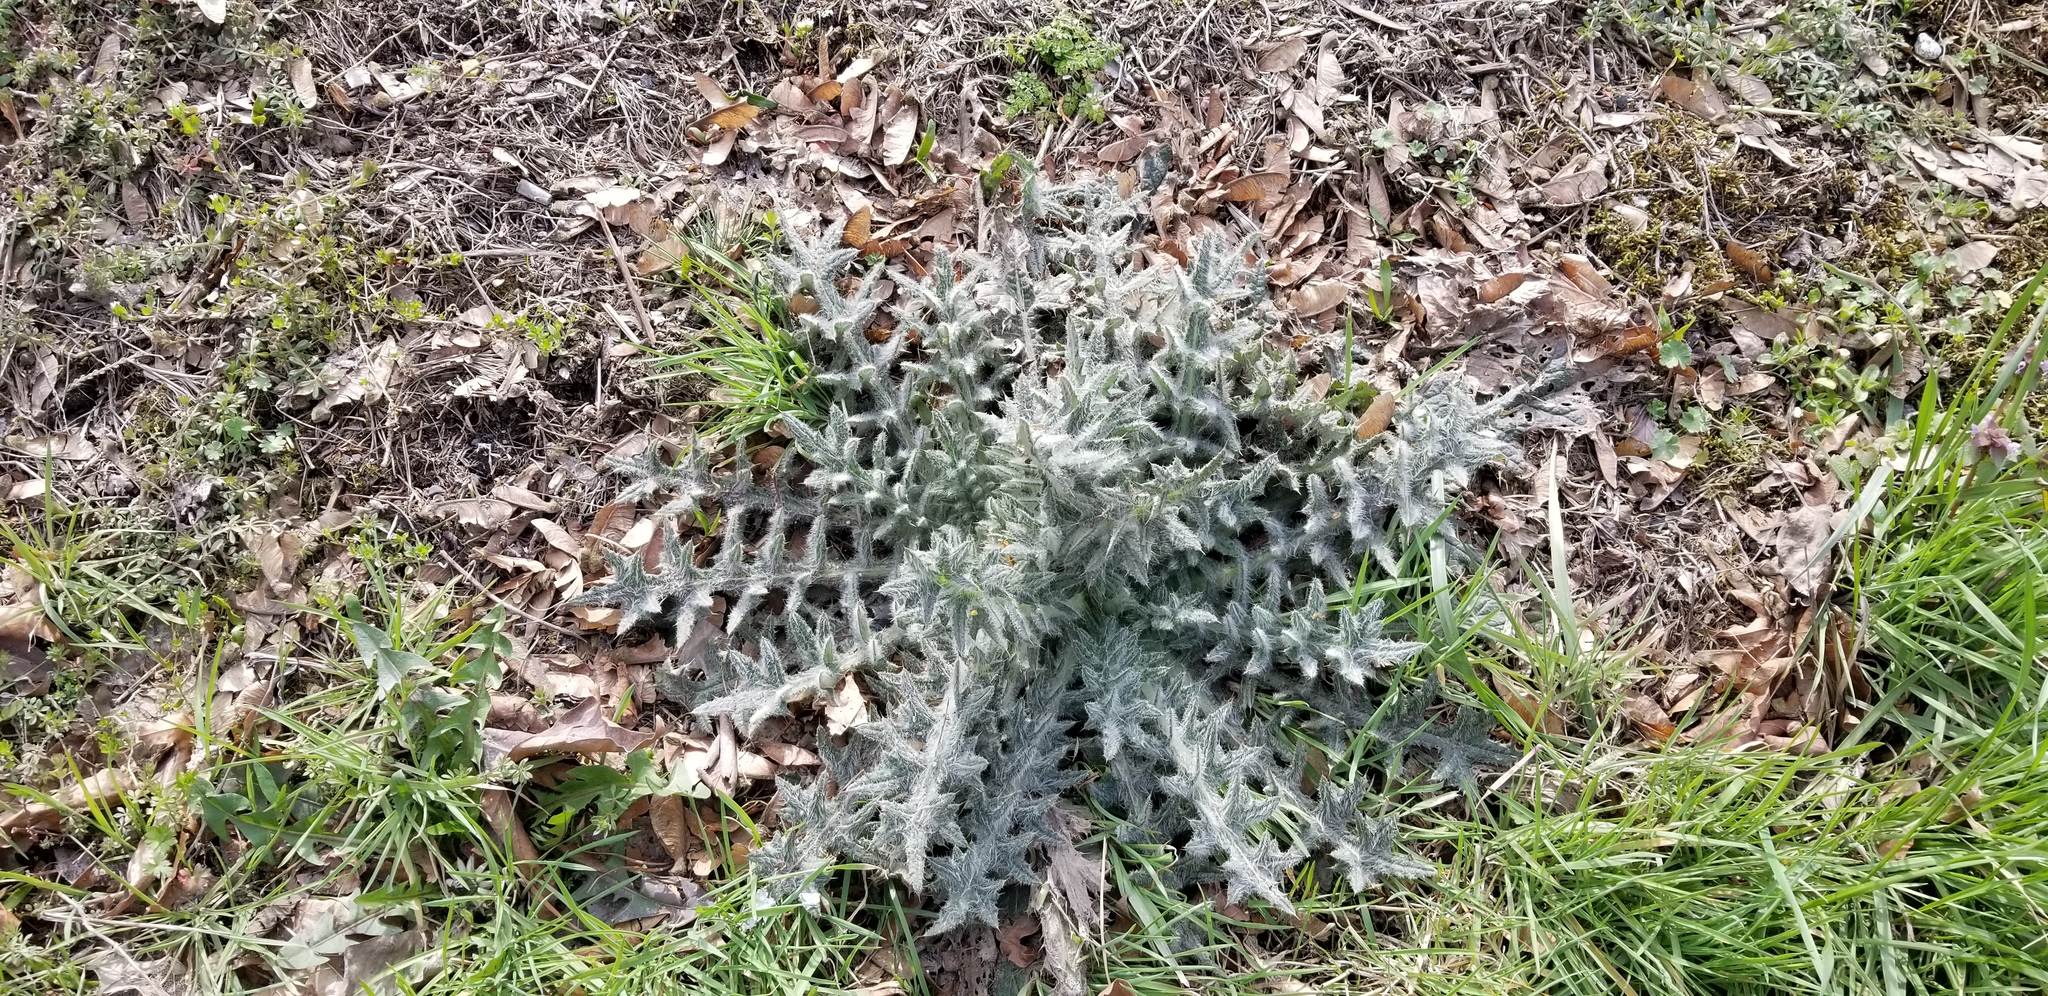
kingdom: Plantae
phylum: Tracheophyta
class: Magnoliopsida
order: Asterales
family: Asteraceae
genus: Cirsium
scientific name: Cirsium vulgare
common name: Bull thistle
